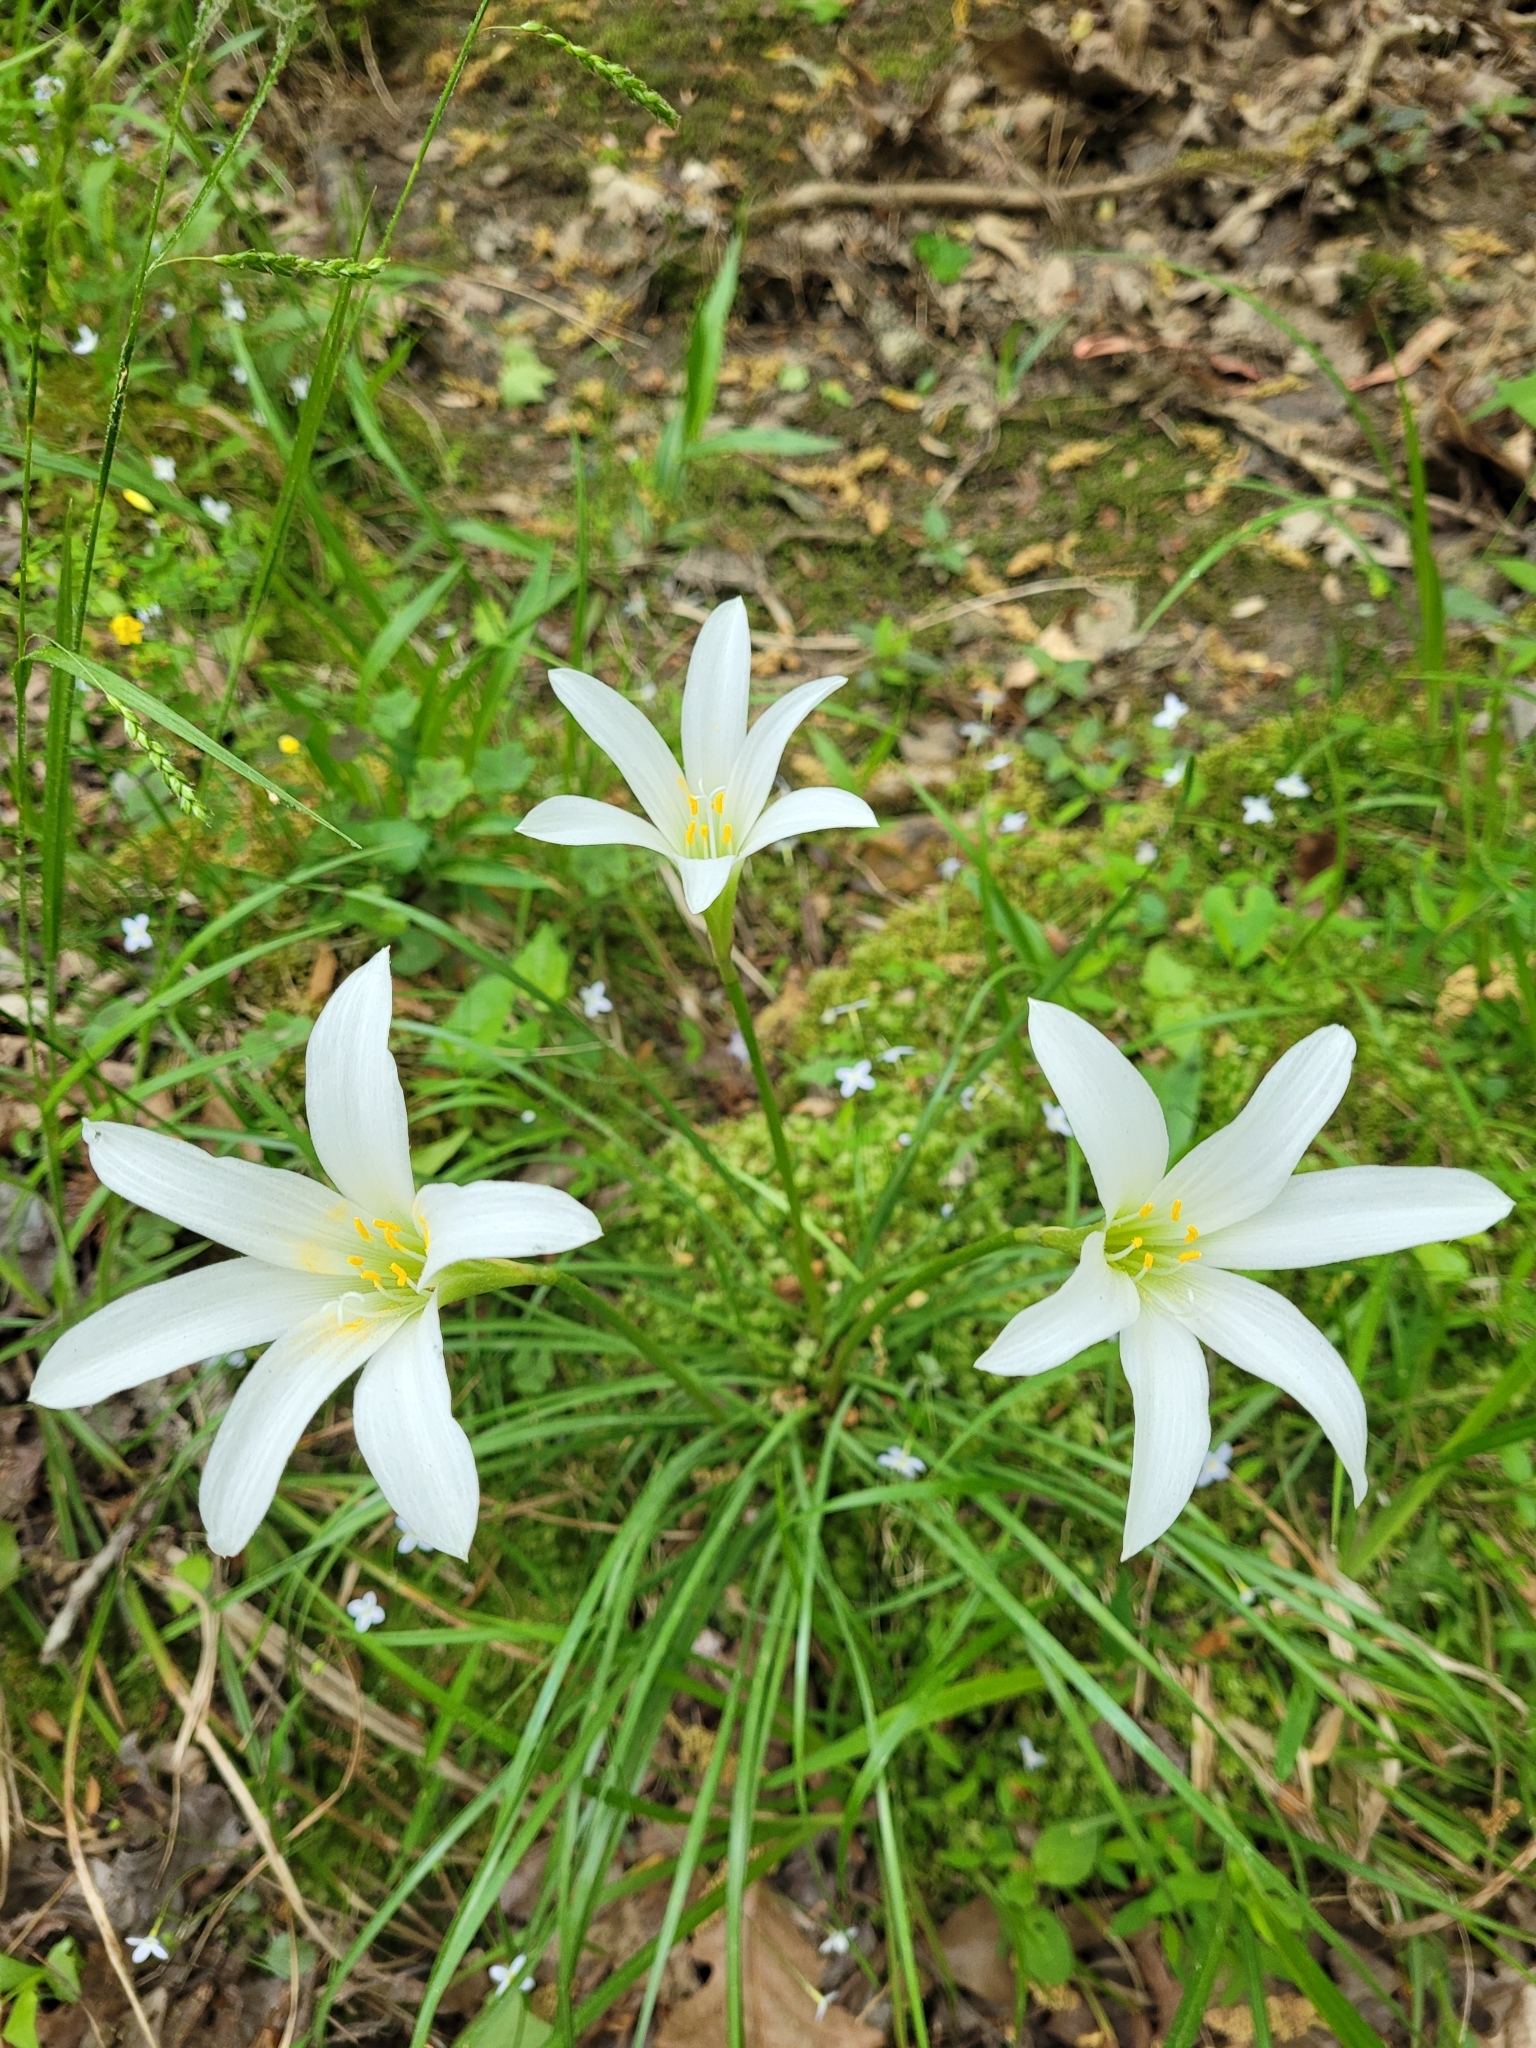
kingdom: Plantae
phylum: Tracheophyta
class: Liliopsida
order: Asparagales
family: Amaryllidaceae
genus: Zephyranthes
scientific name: Zephyranthes atamasco
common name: Atamasco lily
